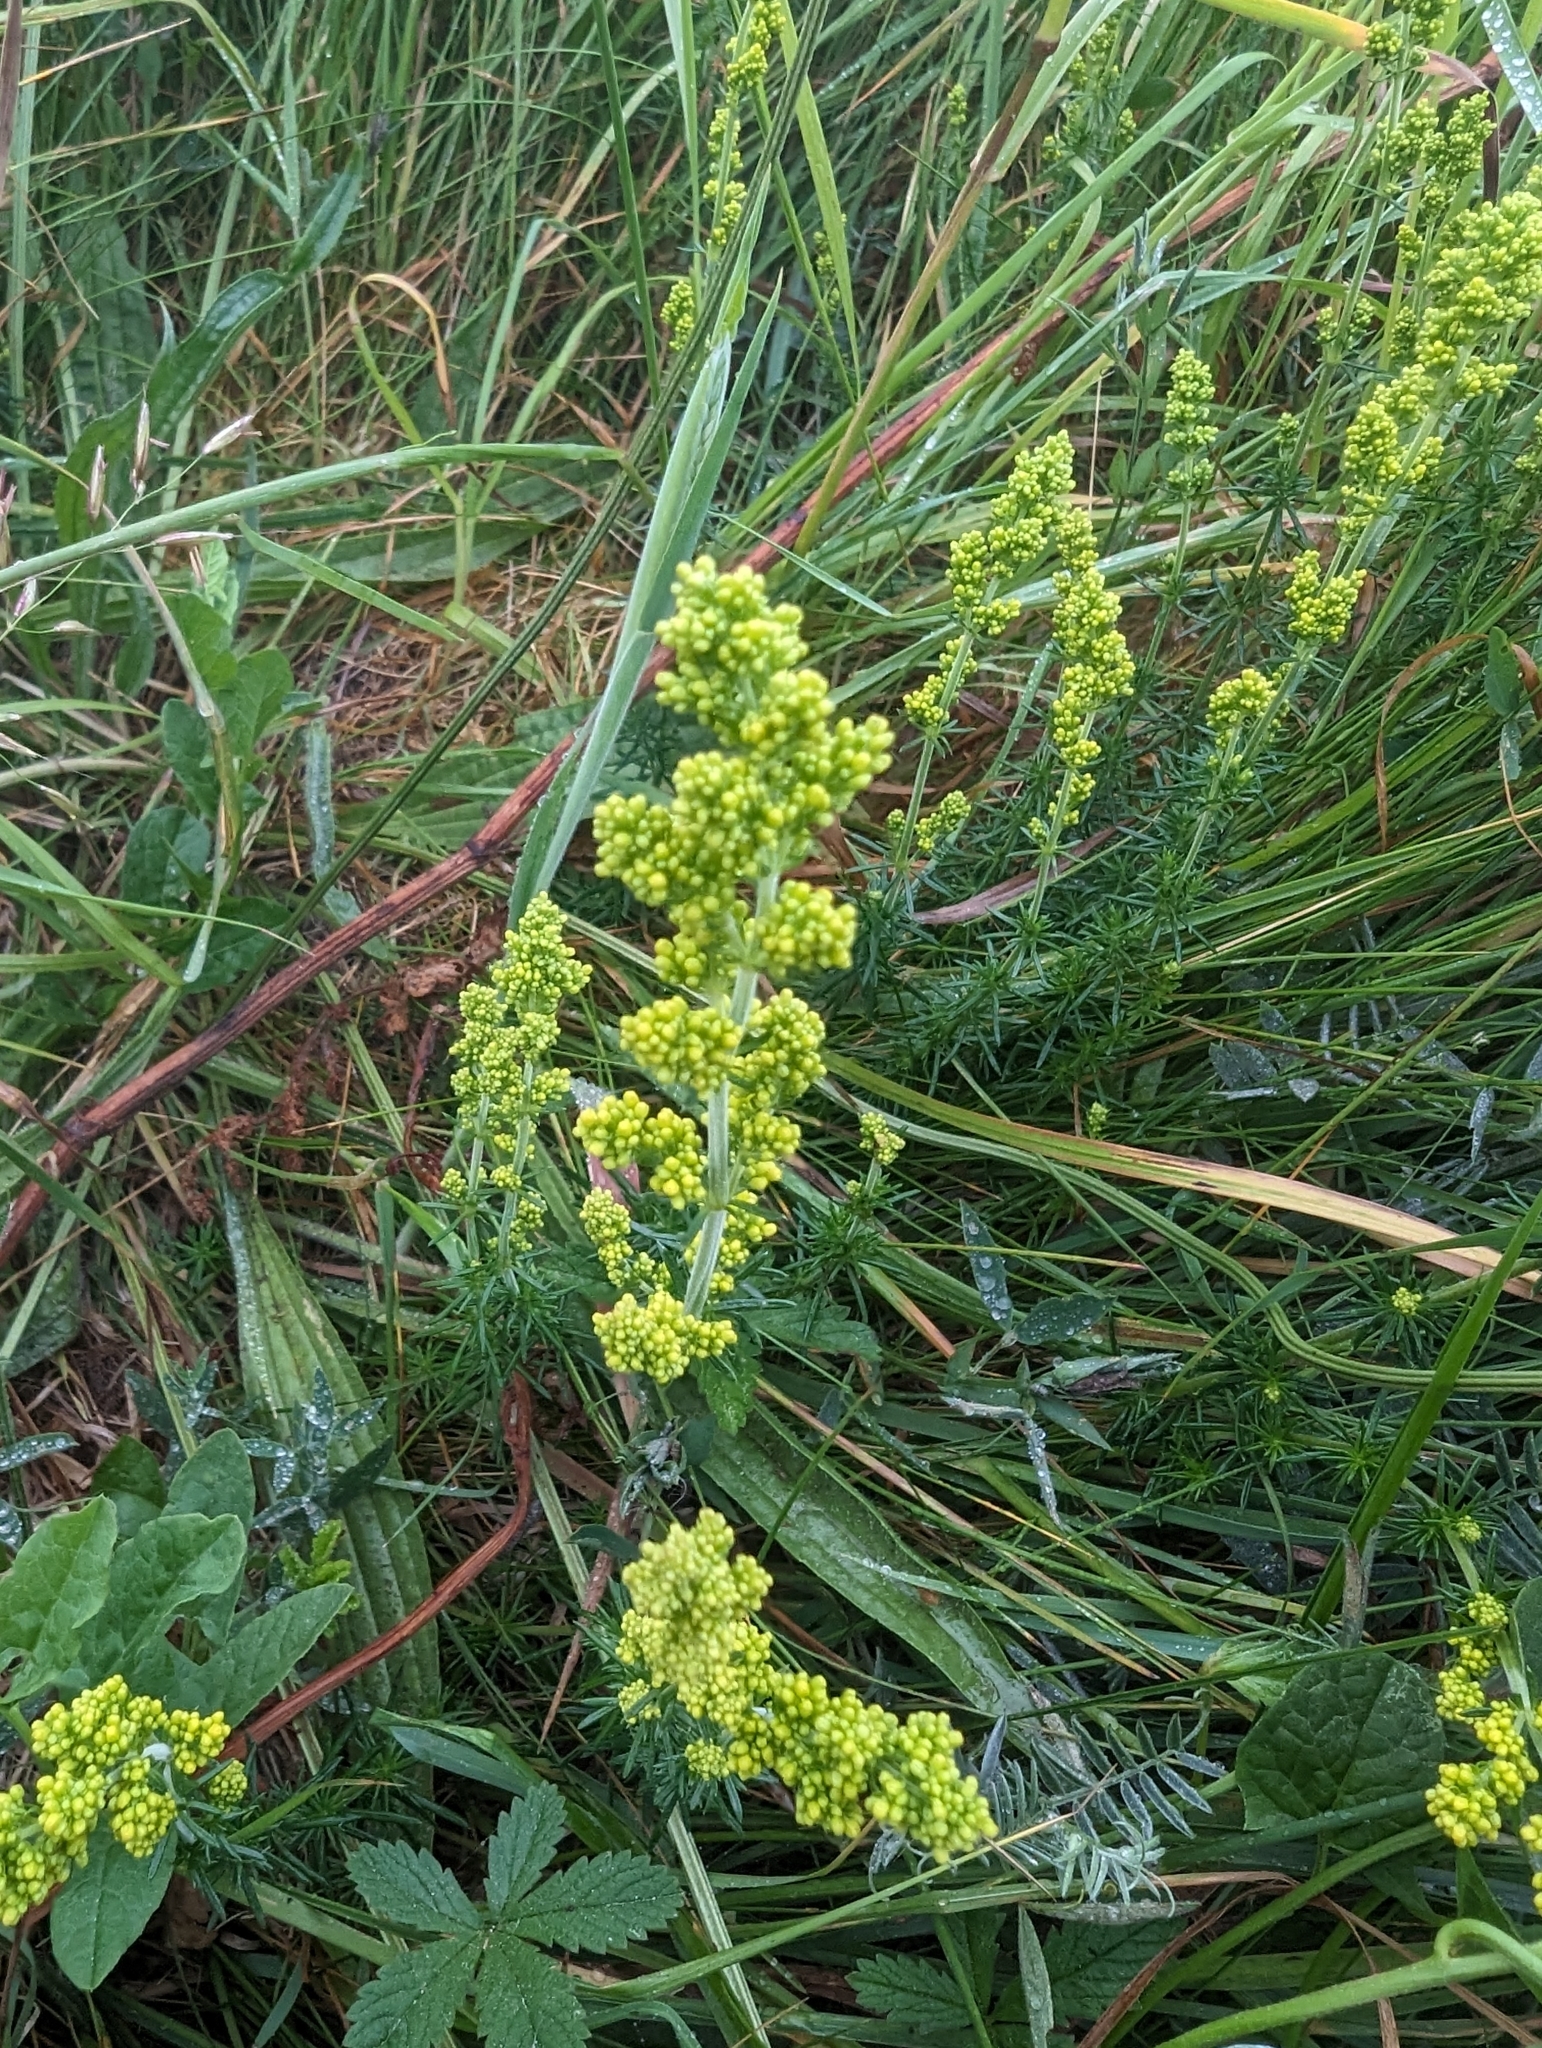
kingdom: Plantae
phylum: Tracheophyta
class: Magnoliopsida
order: Gentianales
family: Rubiaceae
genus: Galium
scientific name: Galium verum
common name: Lady's bedstraw
